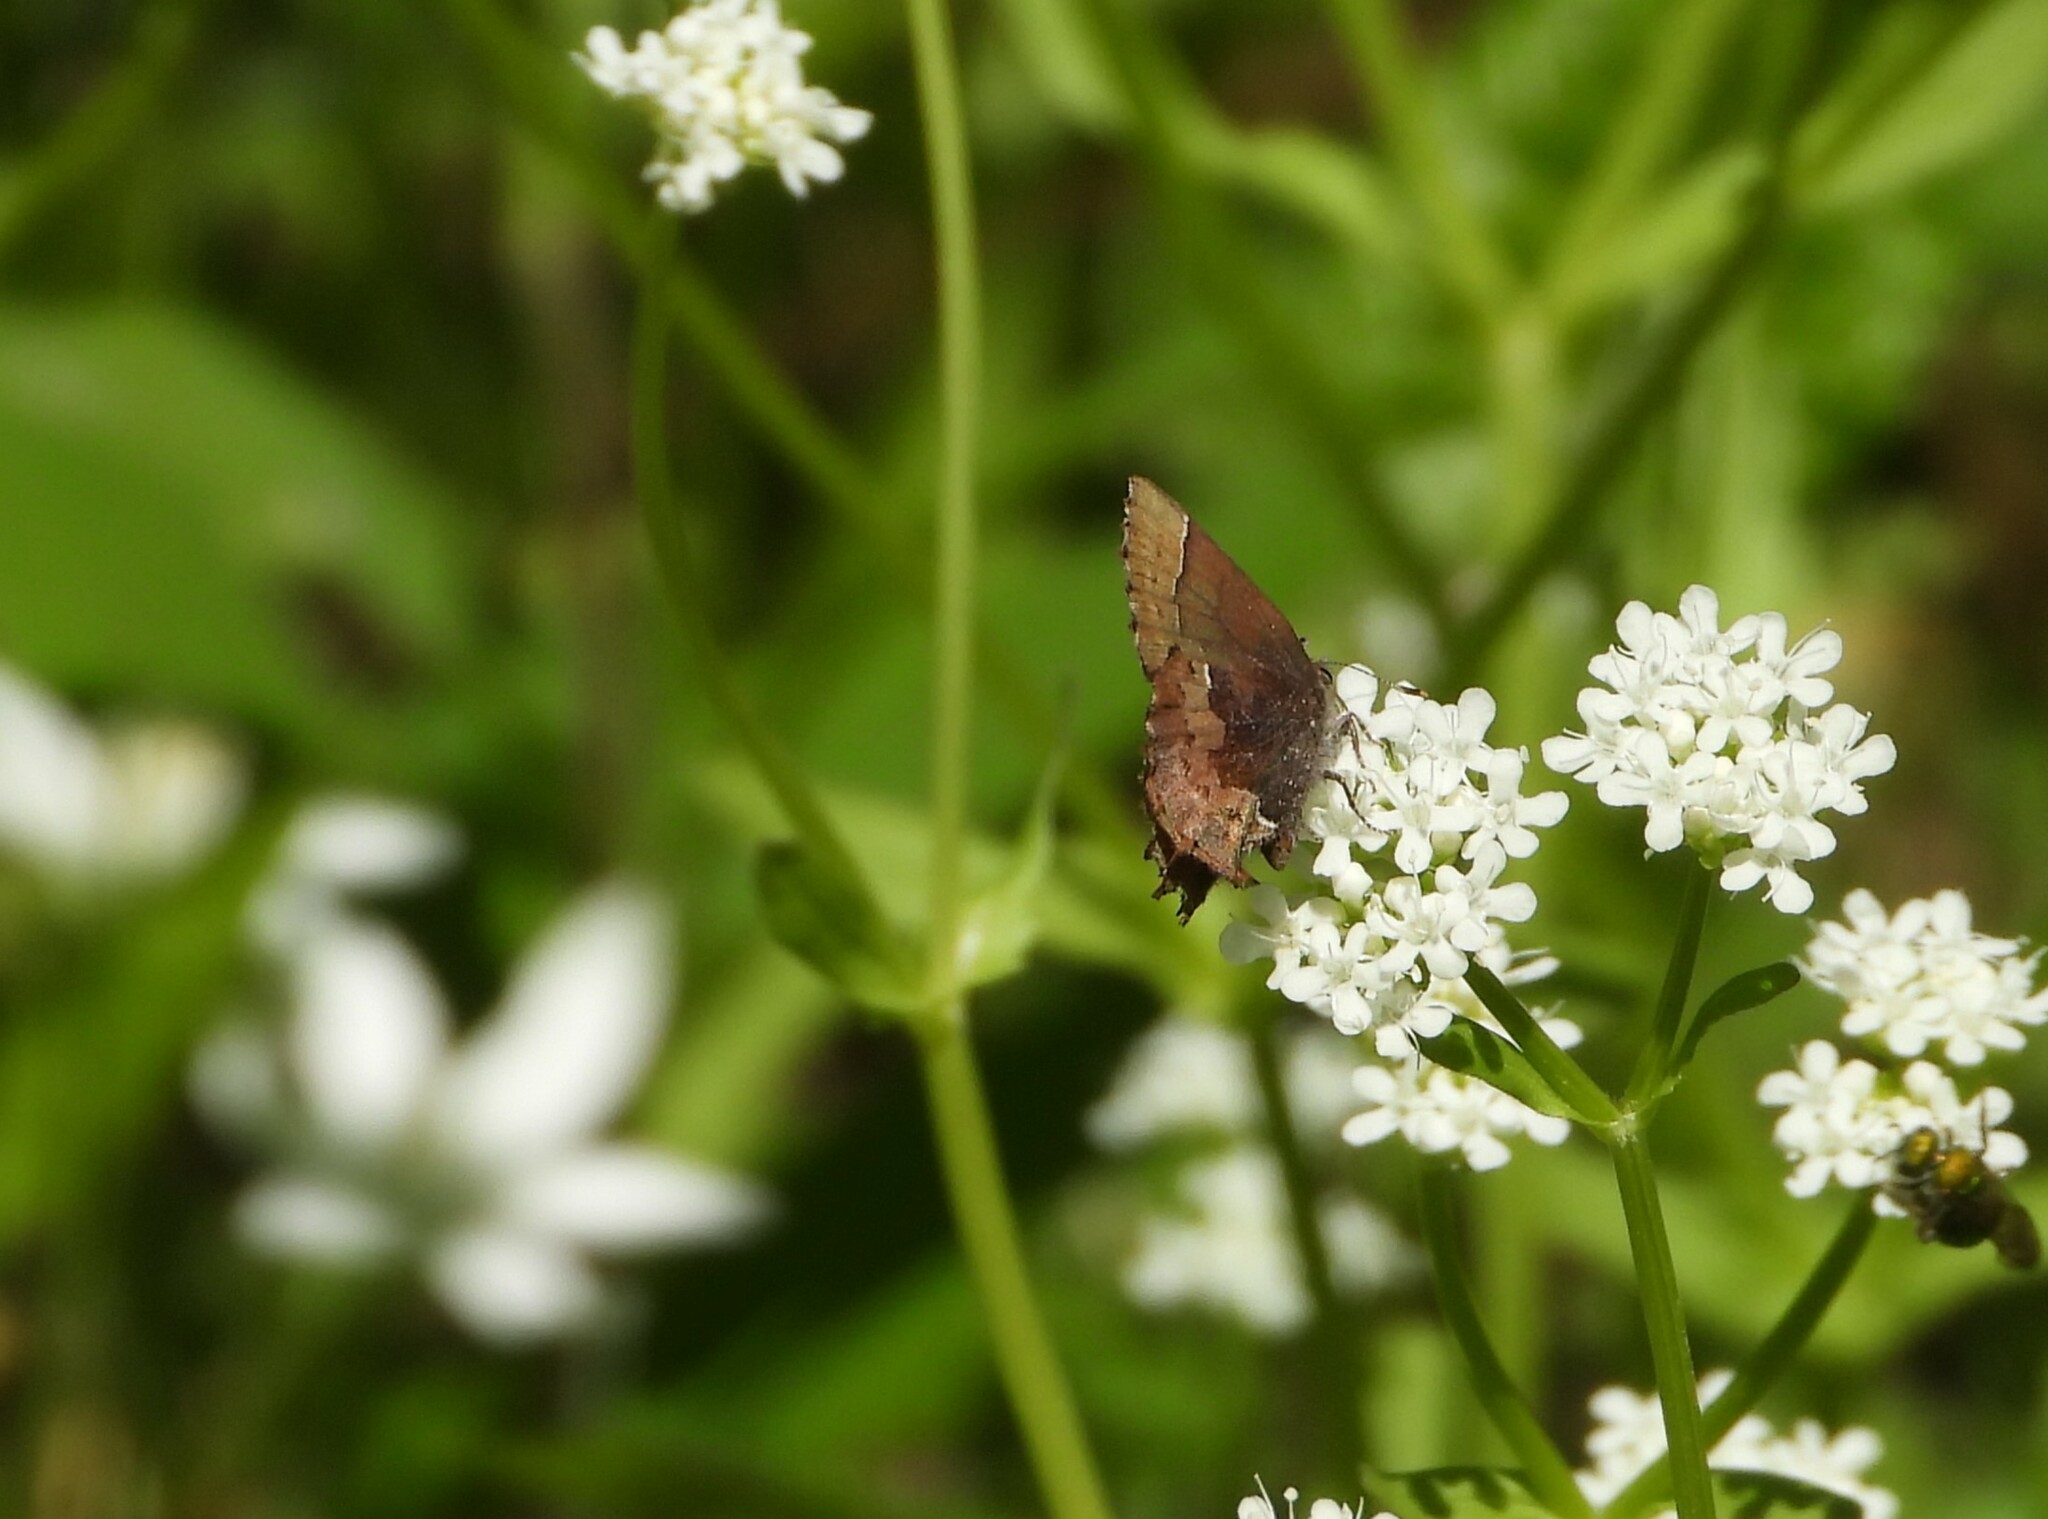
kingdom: Animalia
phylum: Arthropoda
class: Insecta
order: Lepidoptera
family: Lycaenidae
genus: Incisalia
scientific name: Incisalia henrici
